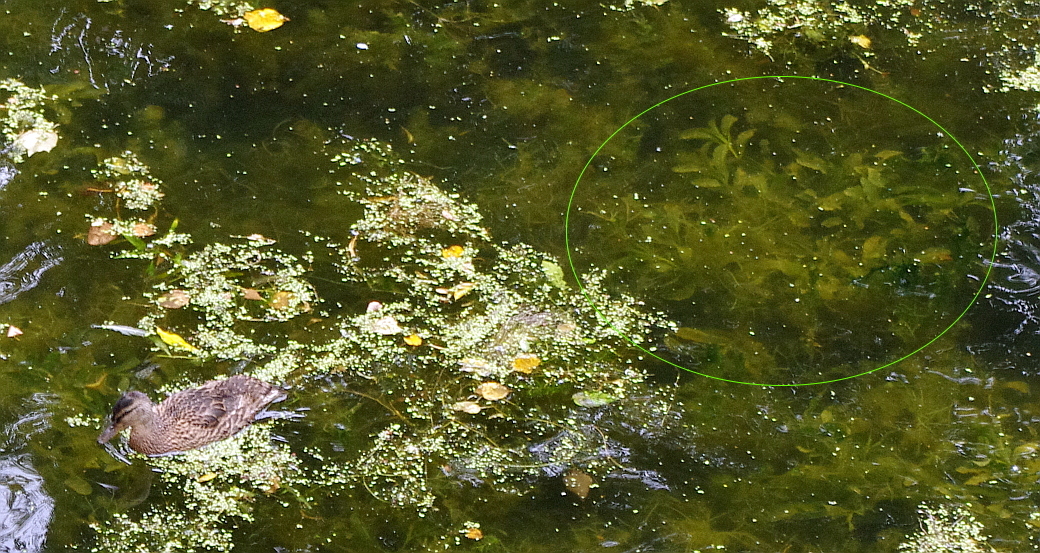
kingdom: Plantae
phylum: Tracheophyta
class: Liliopsida
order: Alismatales
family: Potamogetonaceae
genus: Potamogeton
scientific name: Potamogeton lucens
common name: Shining pondweed
